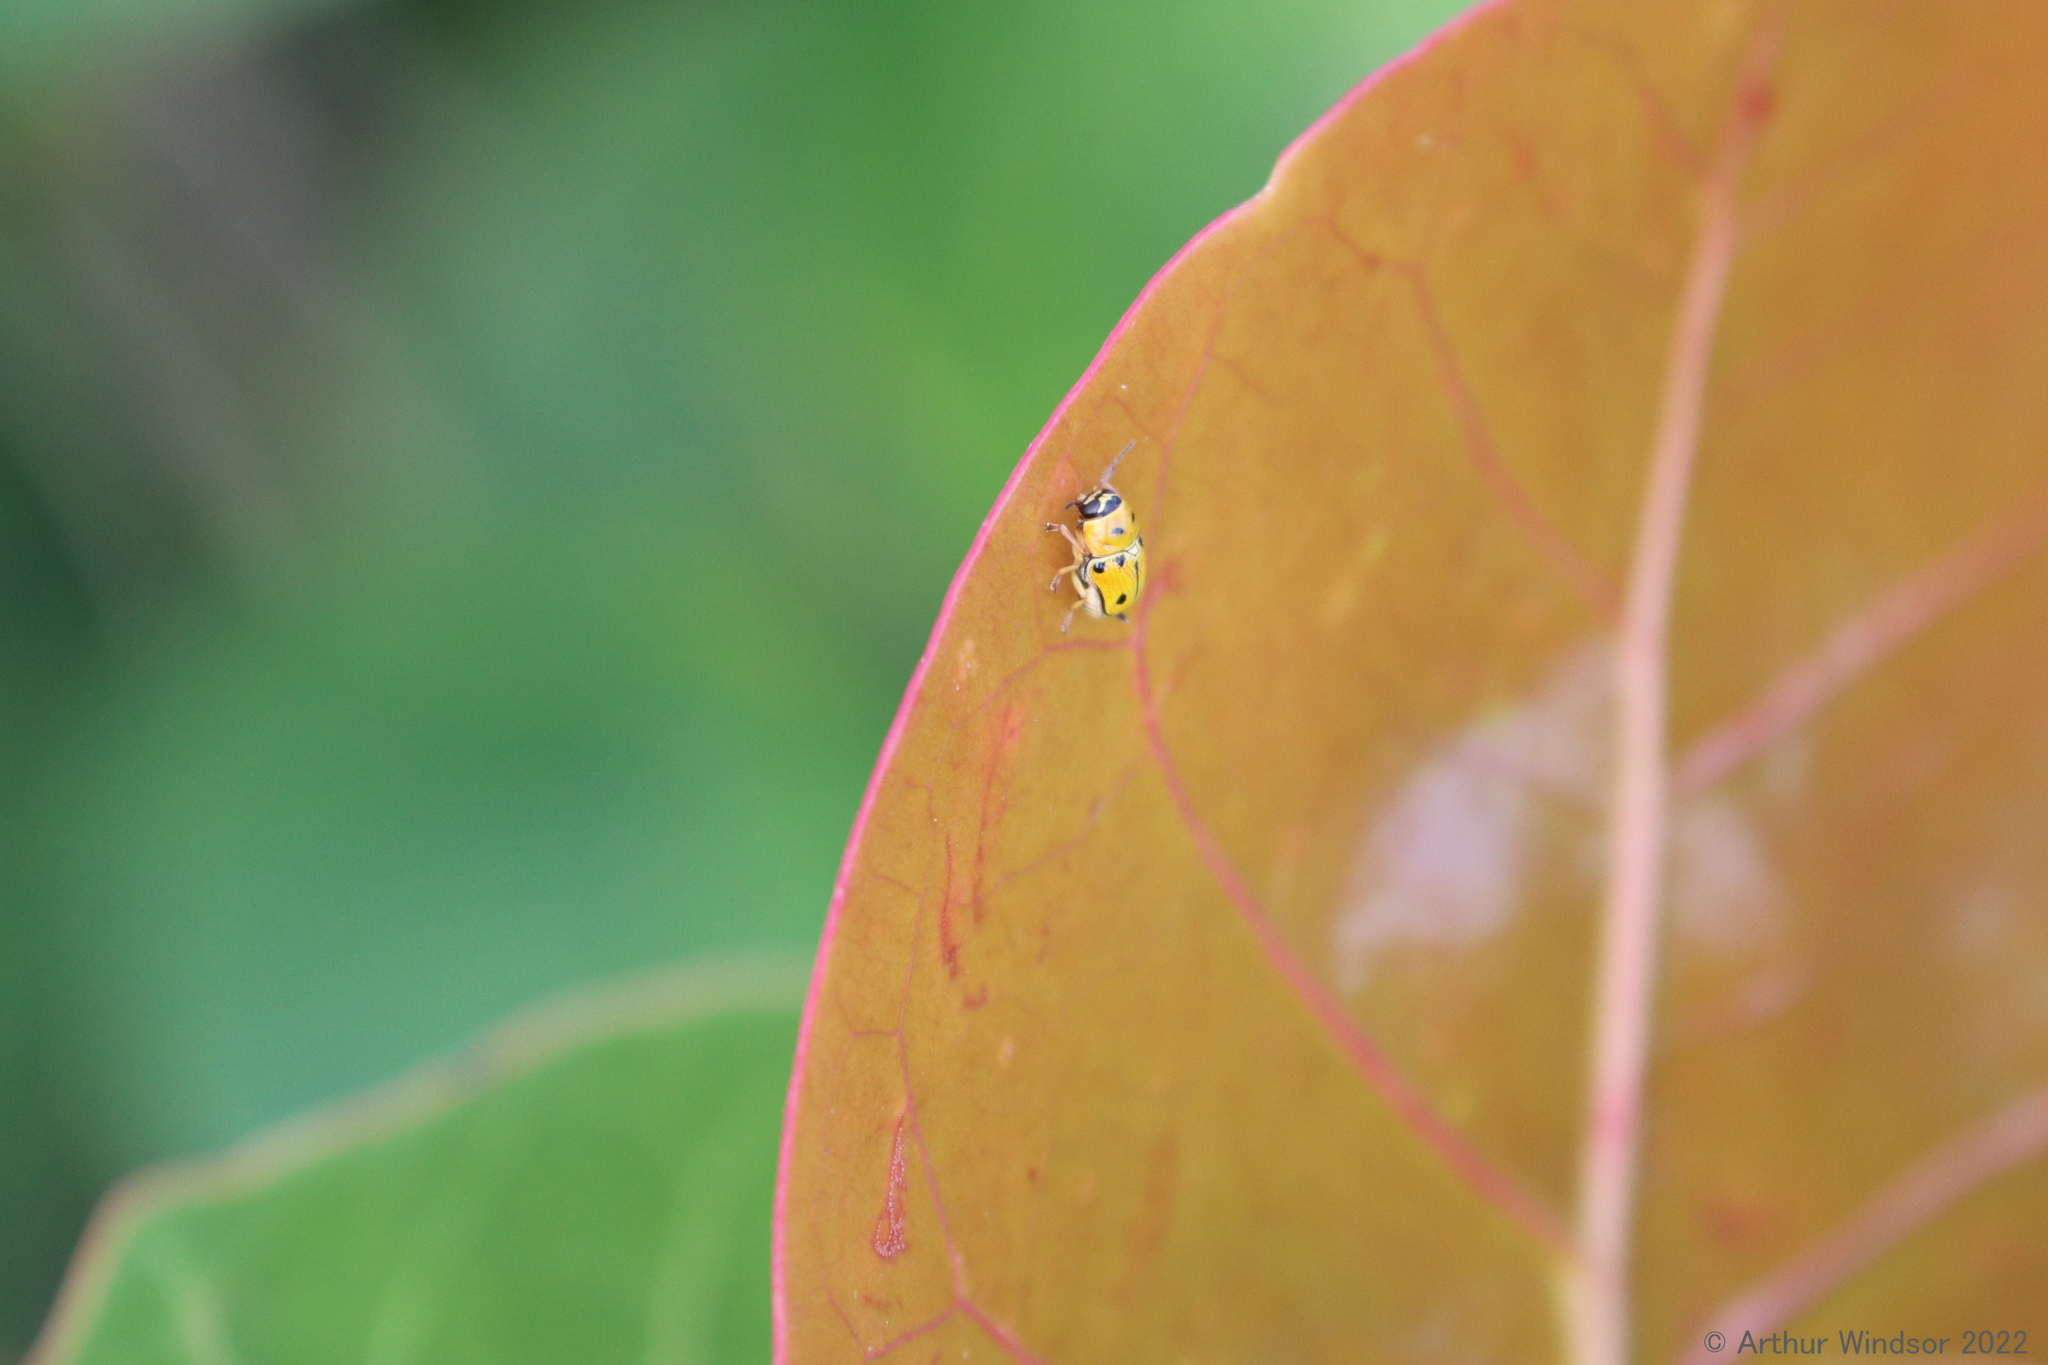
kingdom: Animalia
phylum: Arthropoda
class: Insecta
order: Coleoptera
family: Chrysomelidae
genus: Griburius
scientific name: Griburius larvatus
